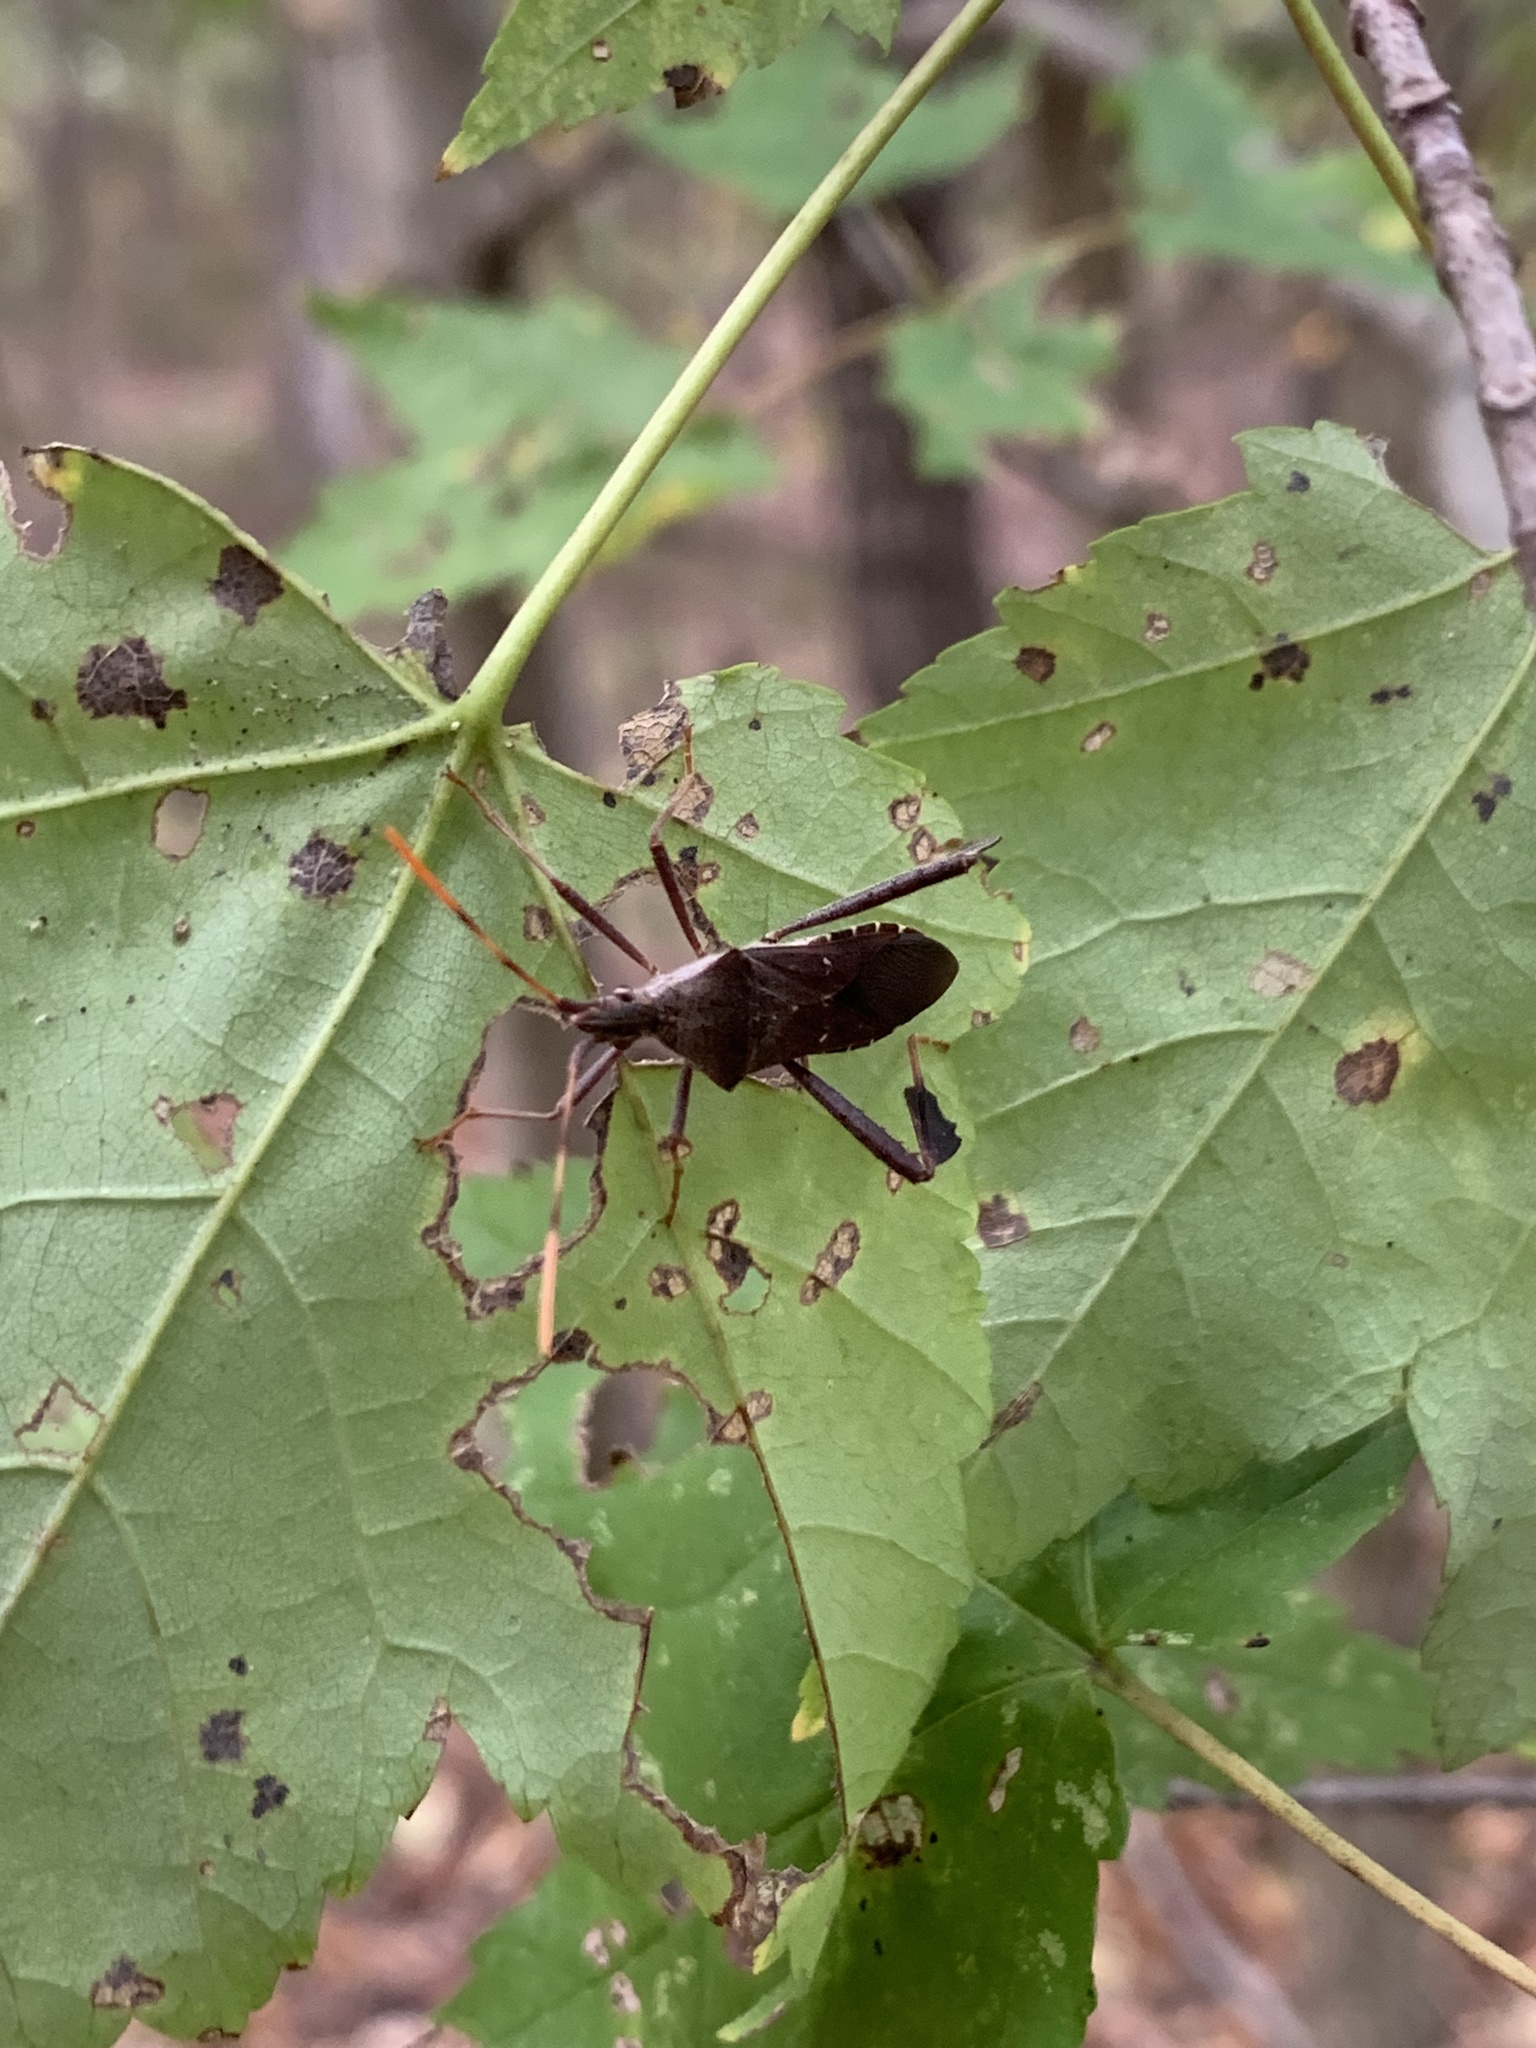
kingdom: Animalia
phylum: Arthropoda
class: Insecta
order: Hemiptera
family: Coreidae
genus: Leptoglossus
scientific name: Leptoglossus oppositus
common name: Northern leaf-footed bug
